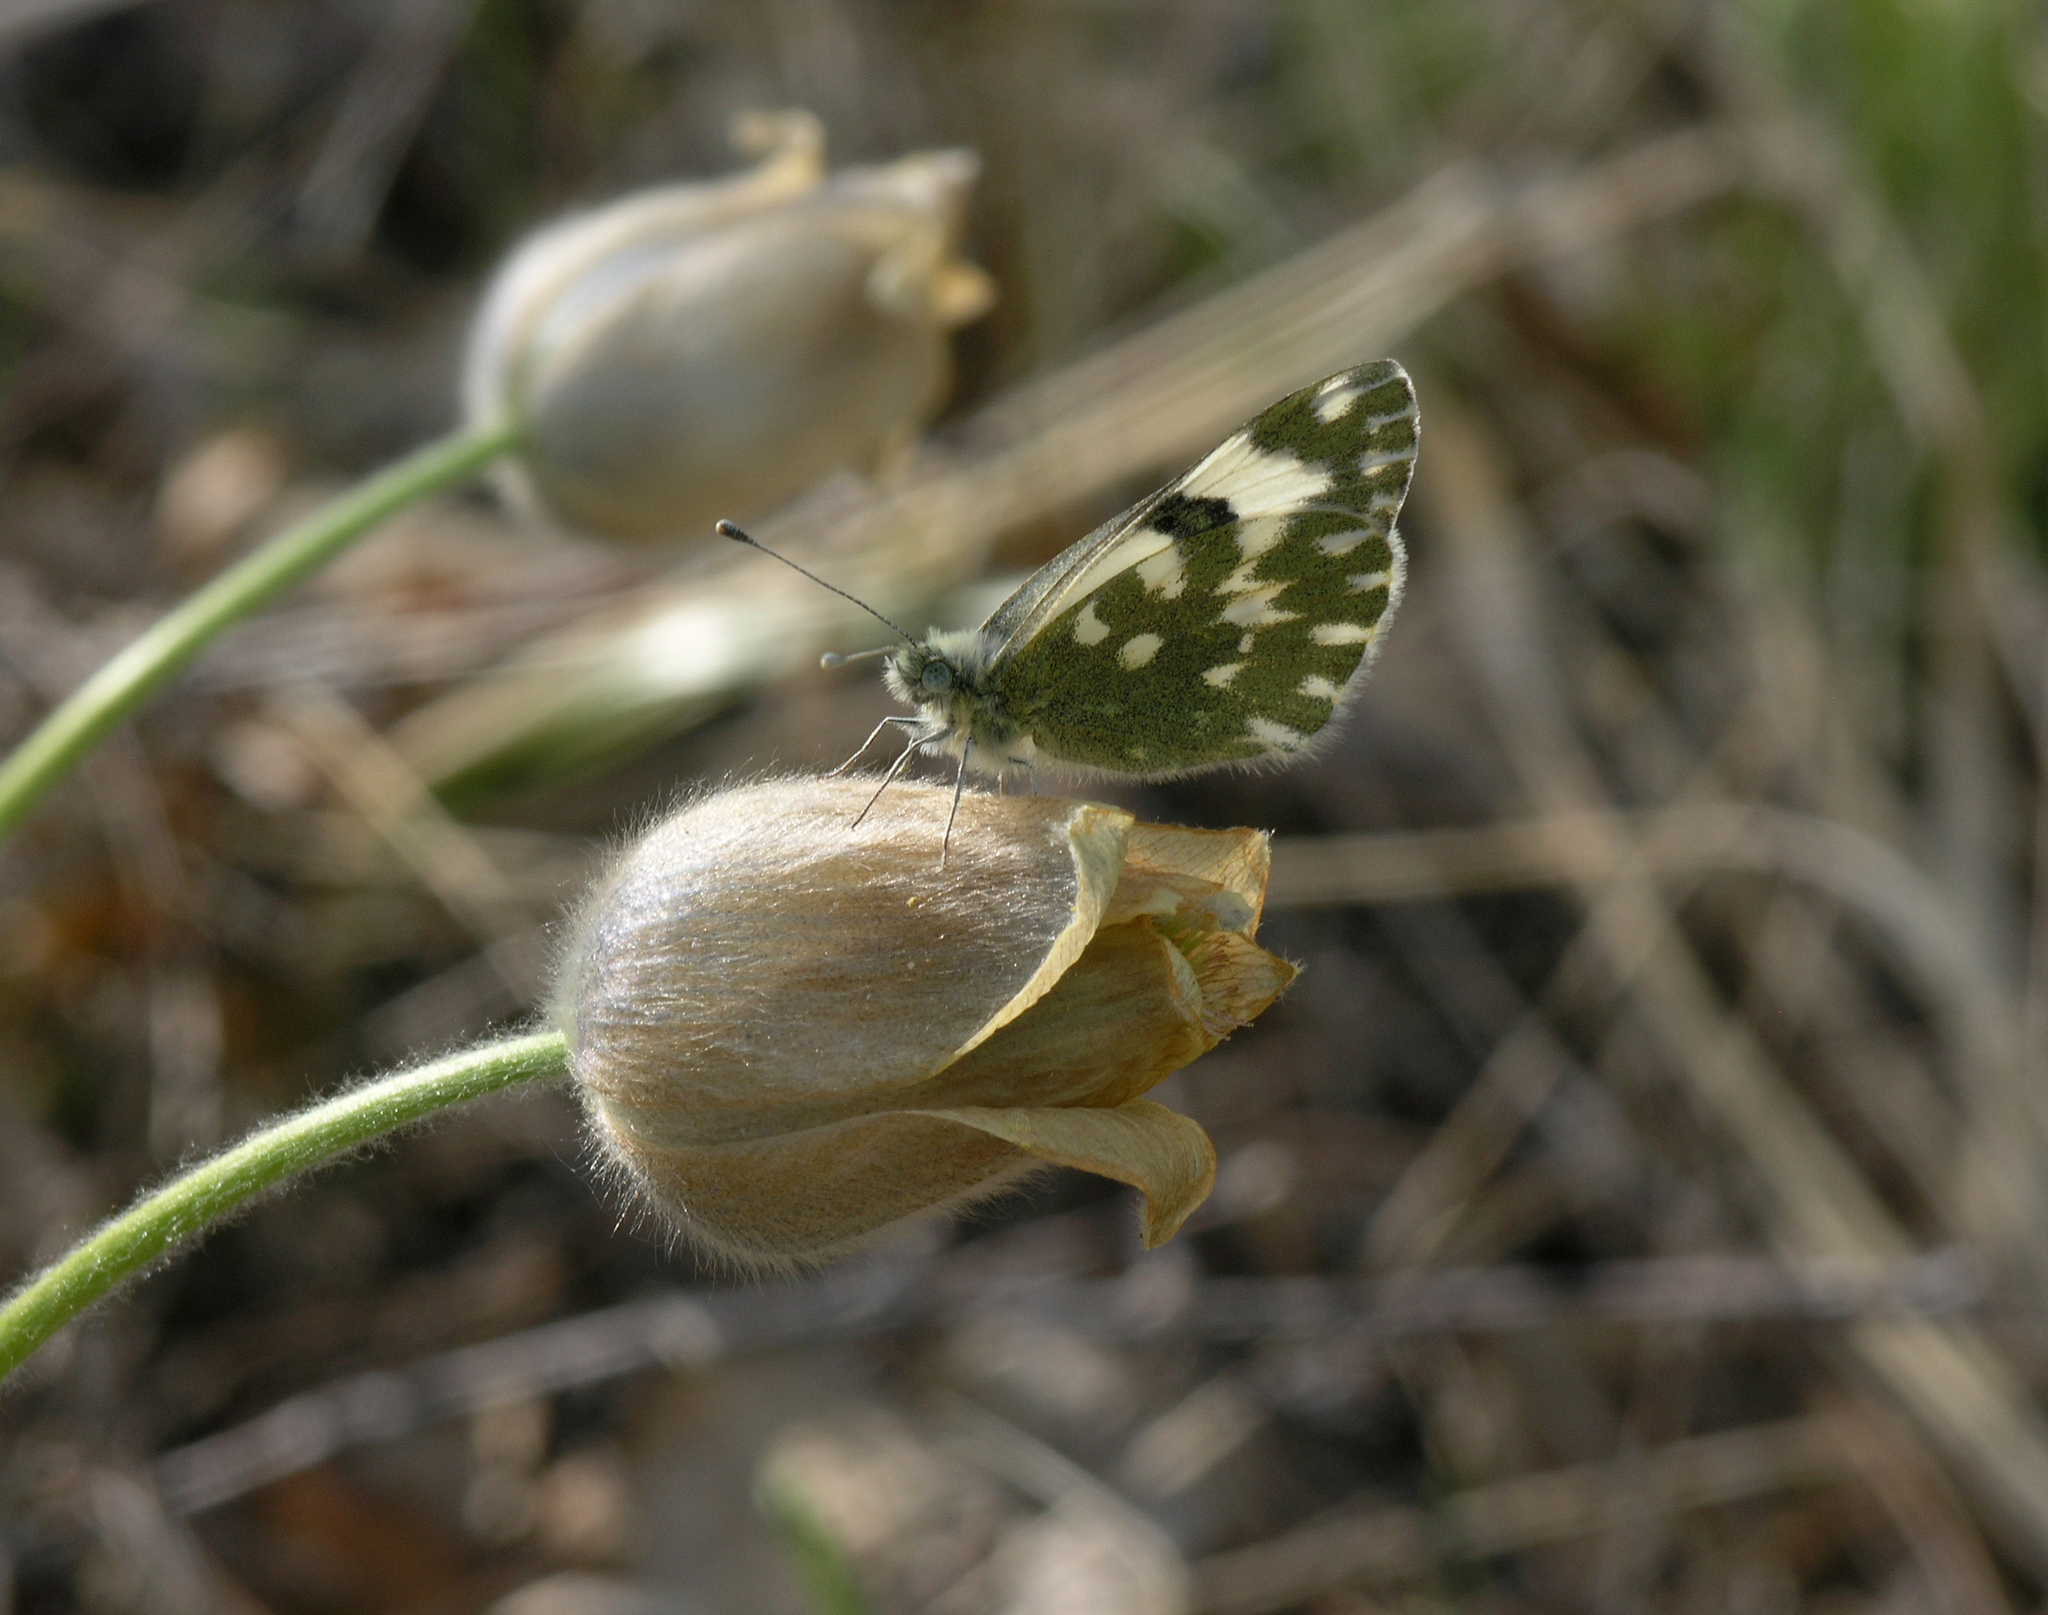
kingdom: Animalia
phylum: Arthropoda
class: Insecta
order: Lepidoptera
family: Pieridae
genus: Pontia
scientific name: Pontia edusa
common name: Eastern bath white
